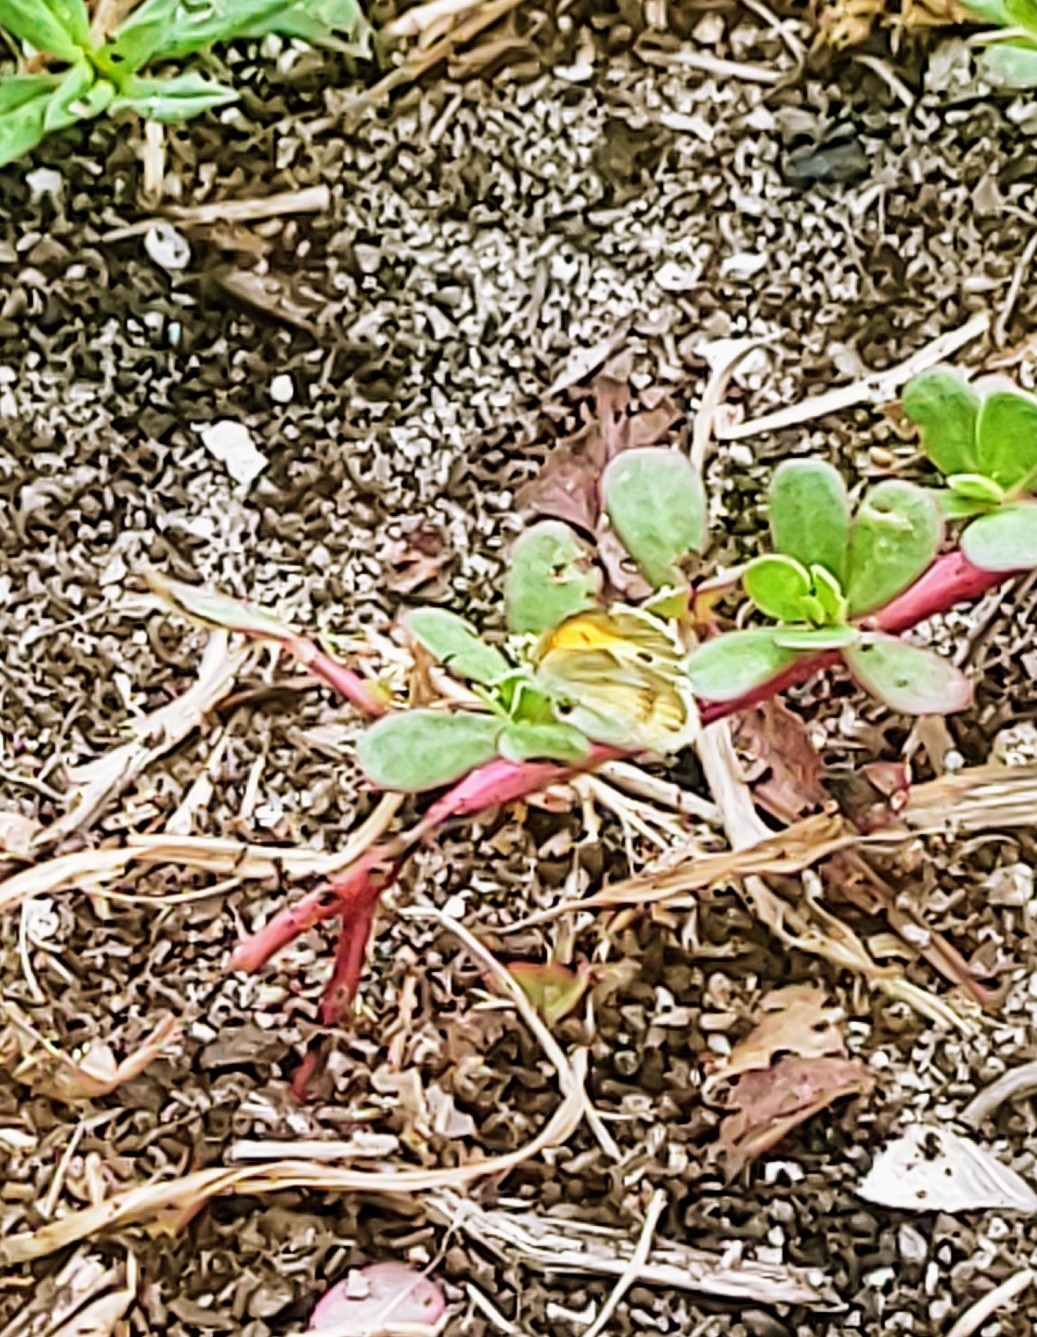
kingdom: Animalia
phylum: Arthropoda
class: Insecta
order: Lepidoptera
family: Pieridae
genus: Nathalis
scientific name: Nathalis iole
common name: Dainty sulphur
